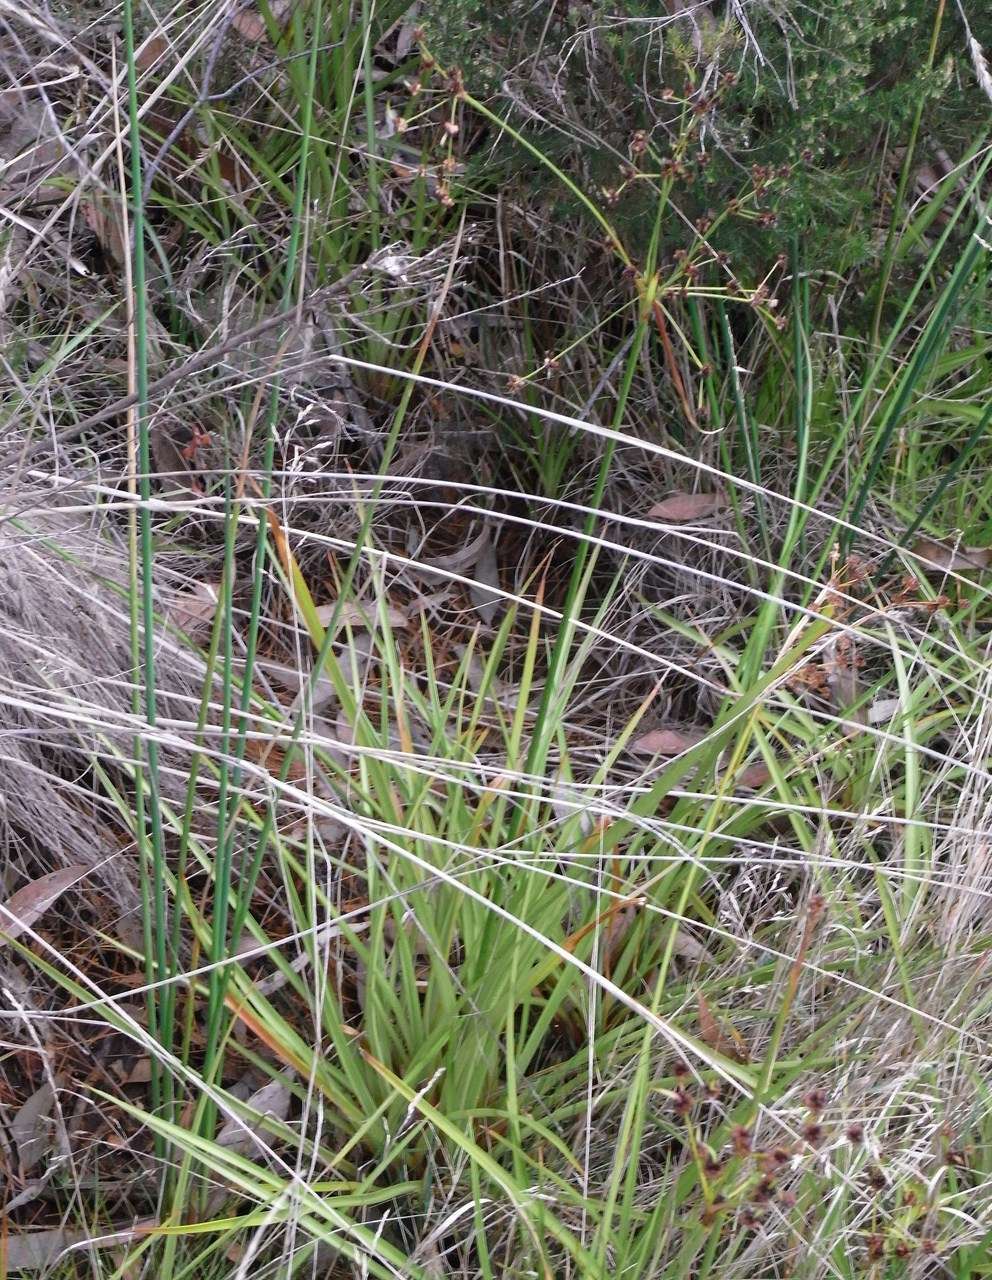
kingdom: Plantae
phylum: Tracheophyta
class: Liliopsida
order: Poales
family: Juncaceae
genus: Juncus
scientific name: Juncus planifolius
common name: Broadleaf rush
